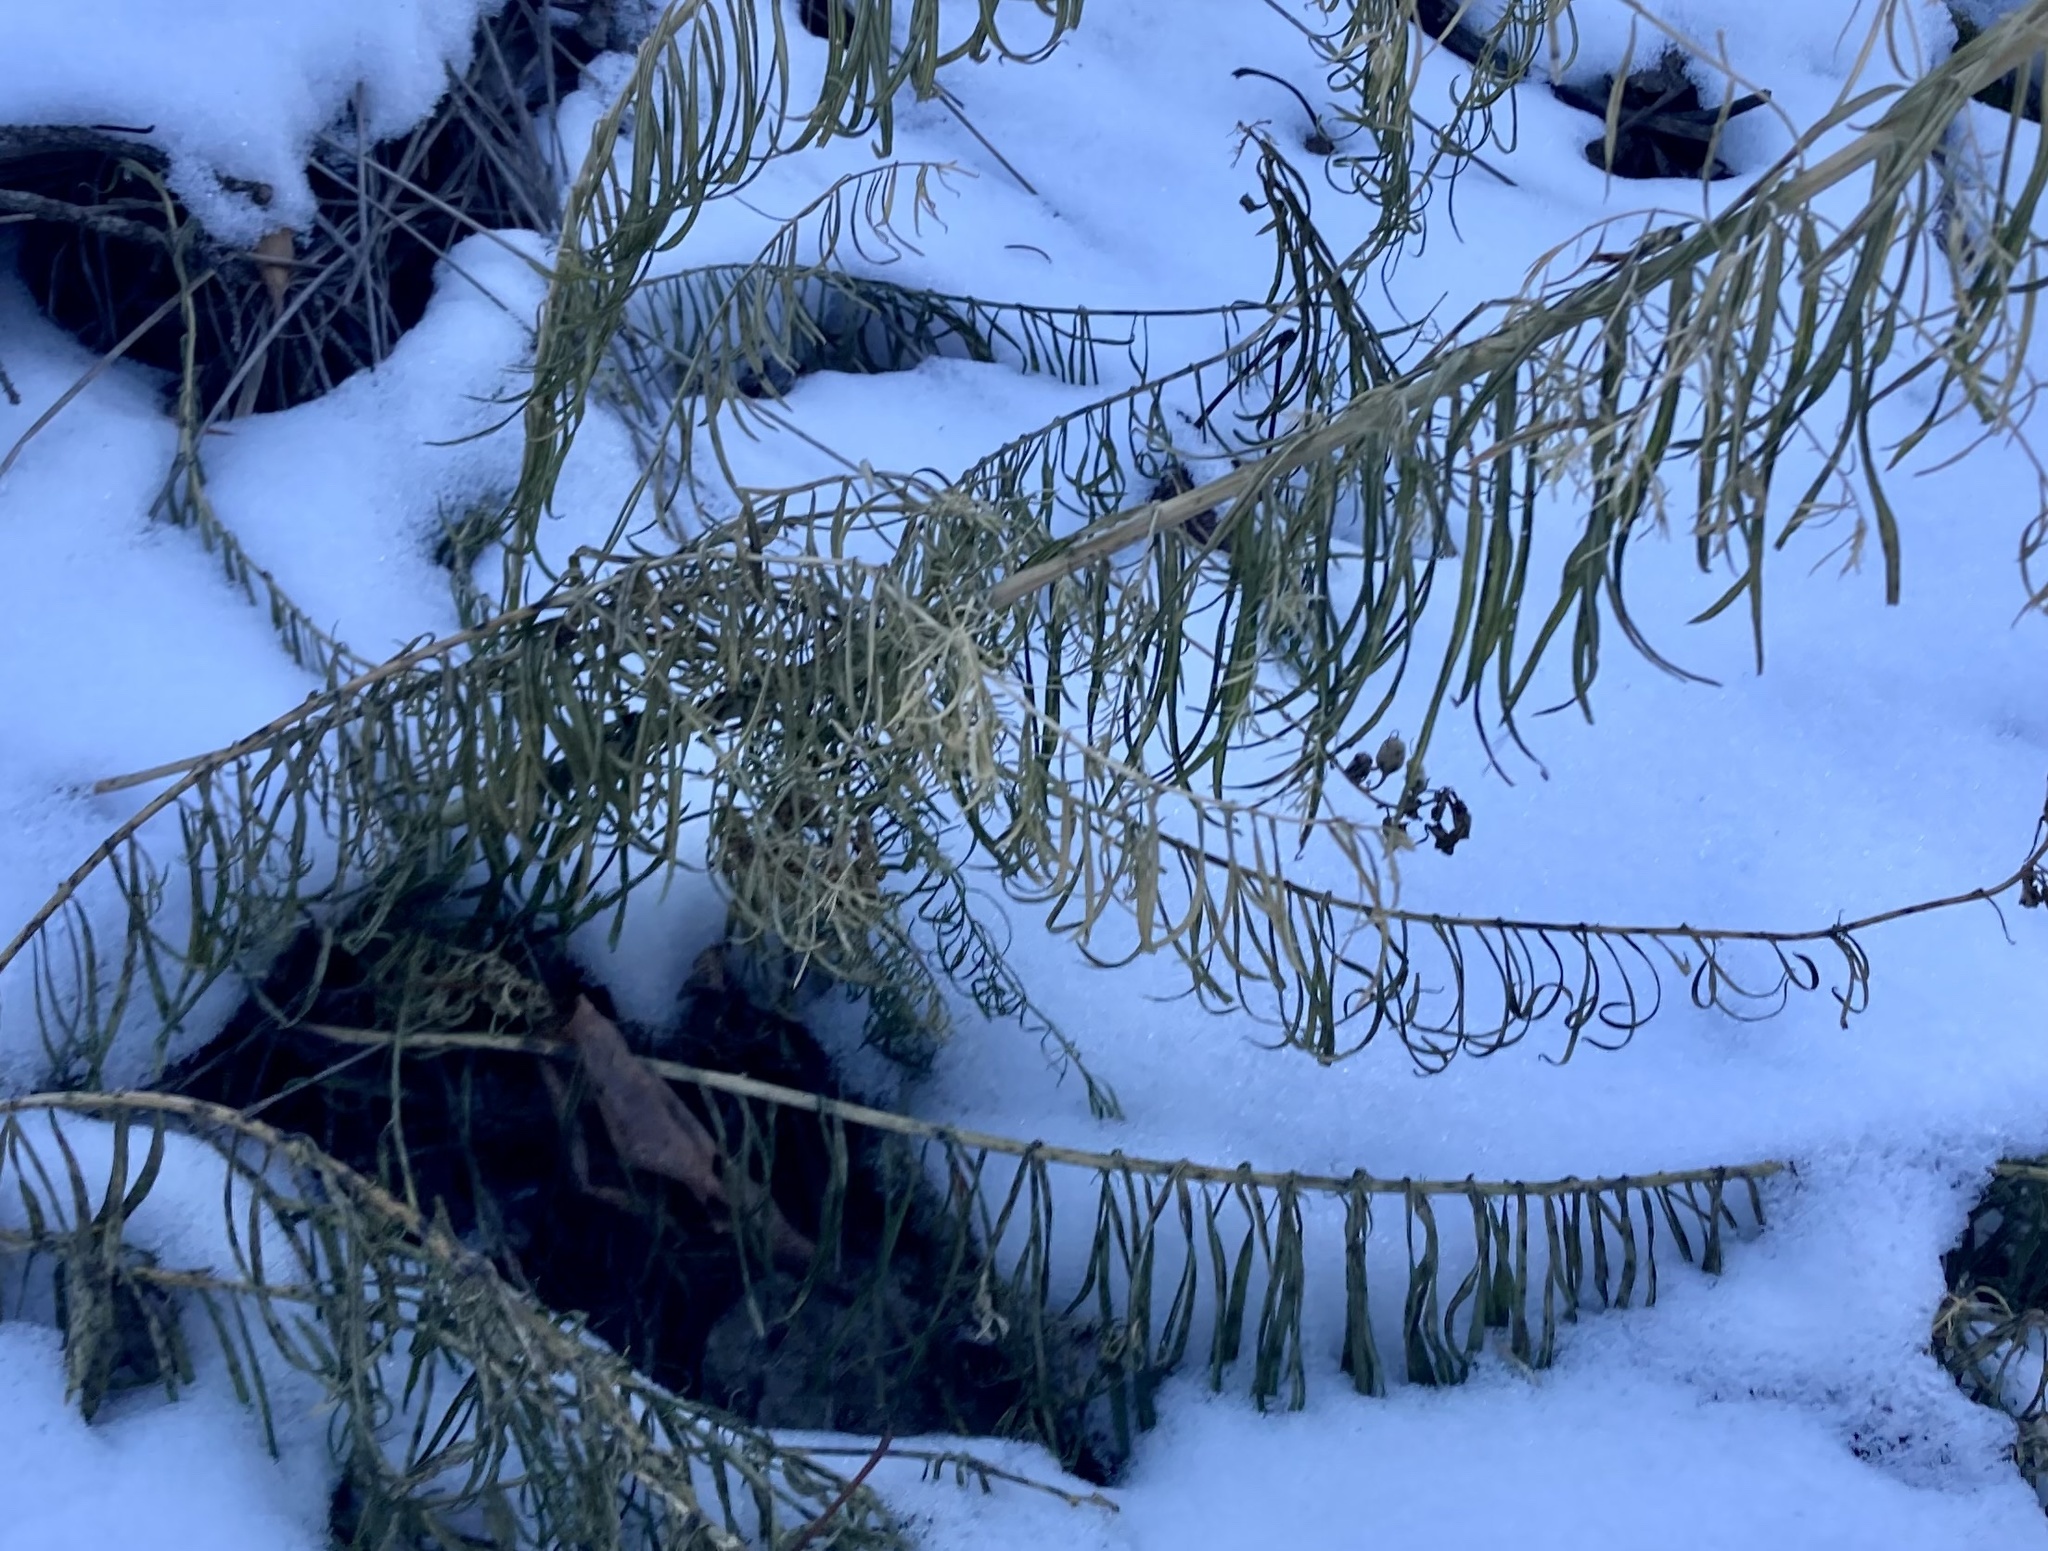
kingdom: Plantae
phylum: Tracheophyta
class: Magnoliopsida
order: Lamiales
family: Plantaginaceae
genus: Linaria
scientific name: Linaria vulgaris
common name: Butter and eggs
